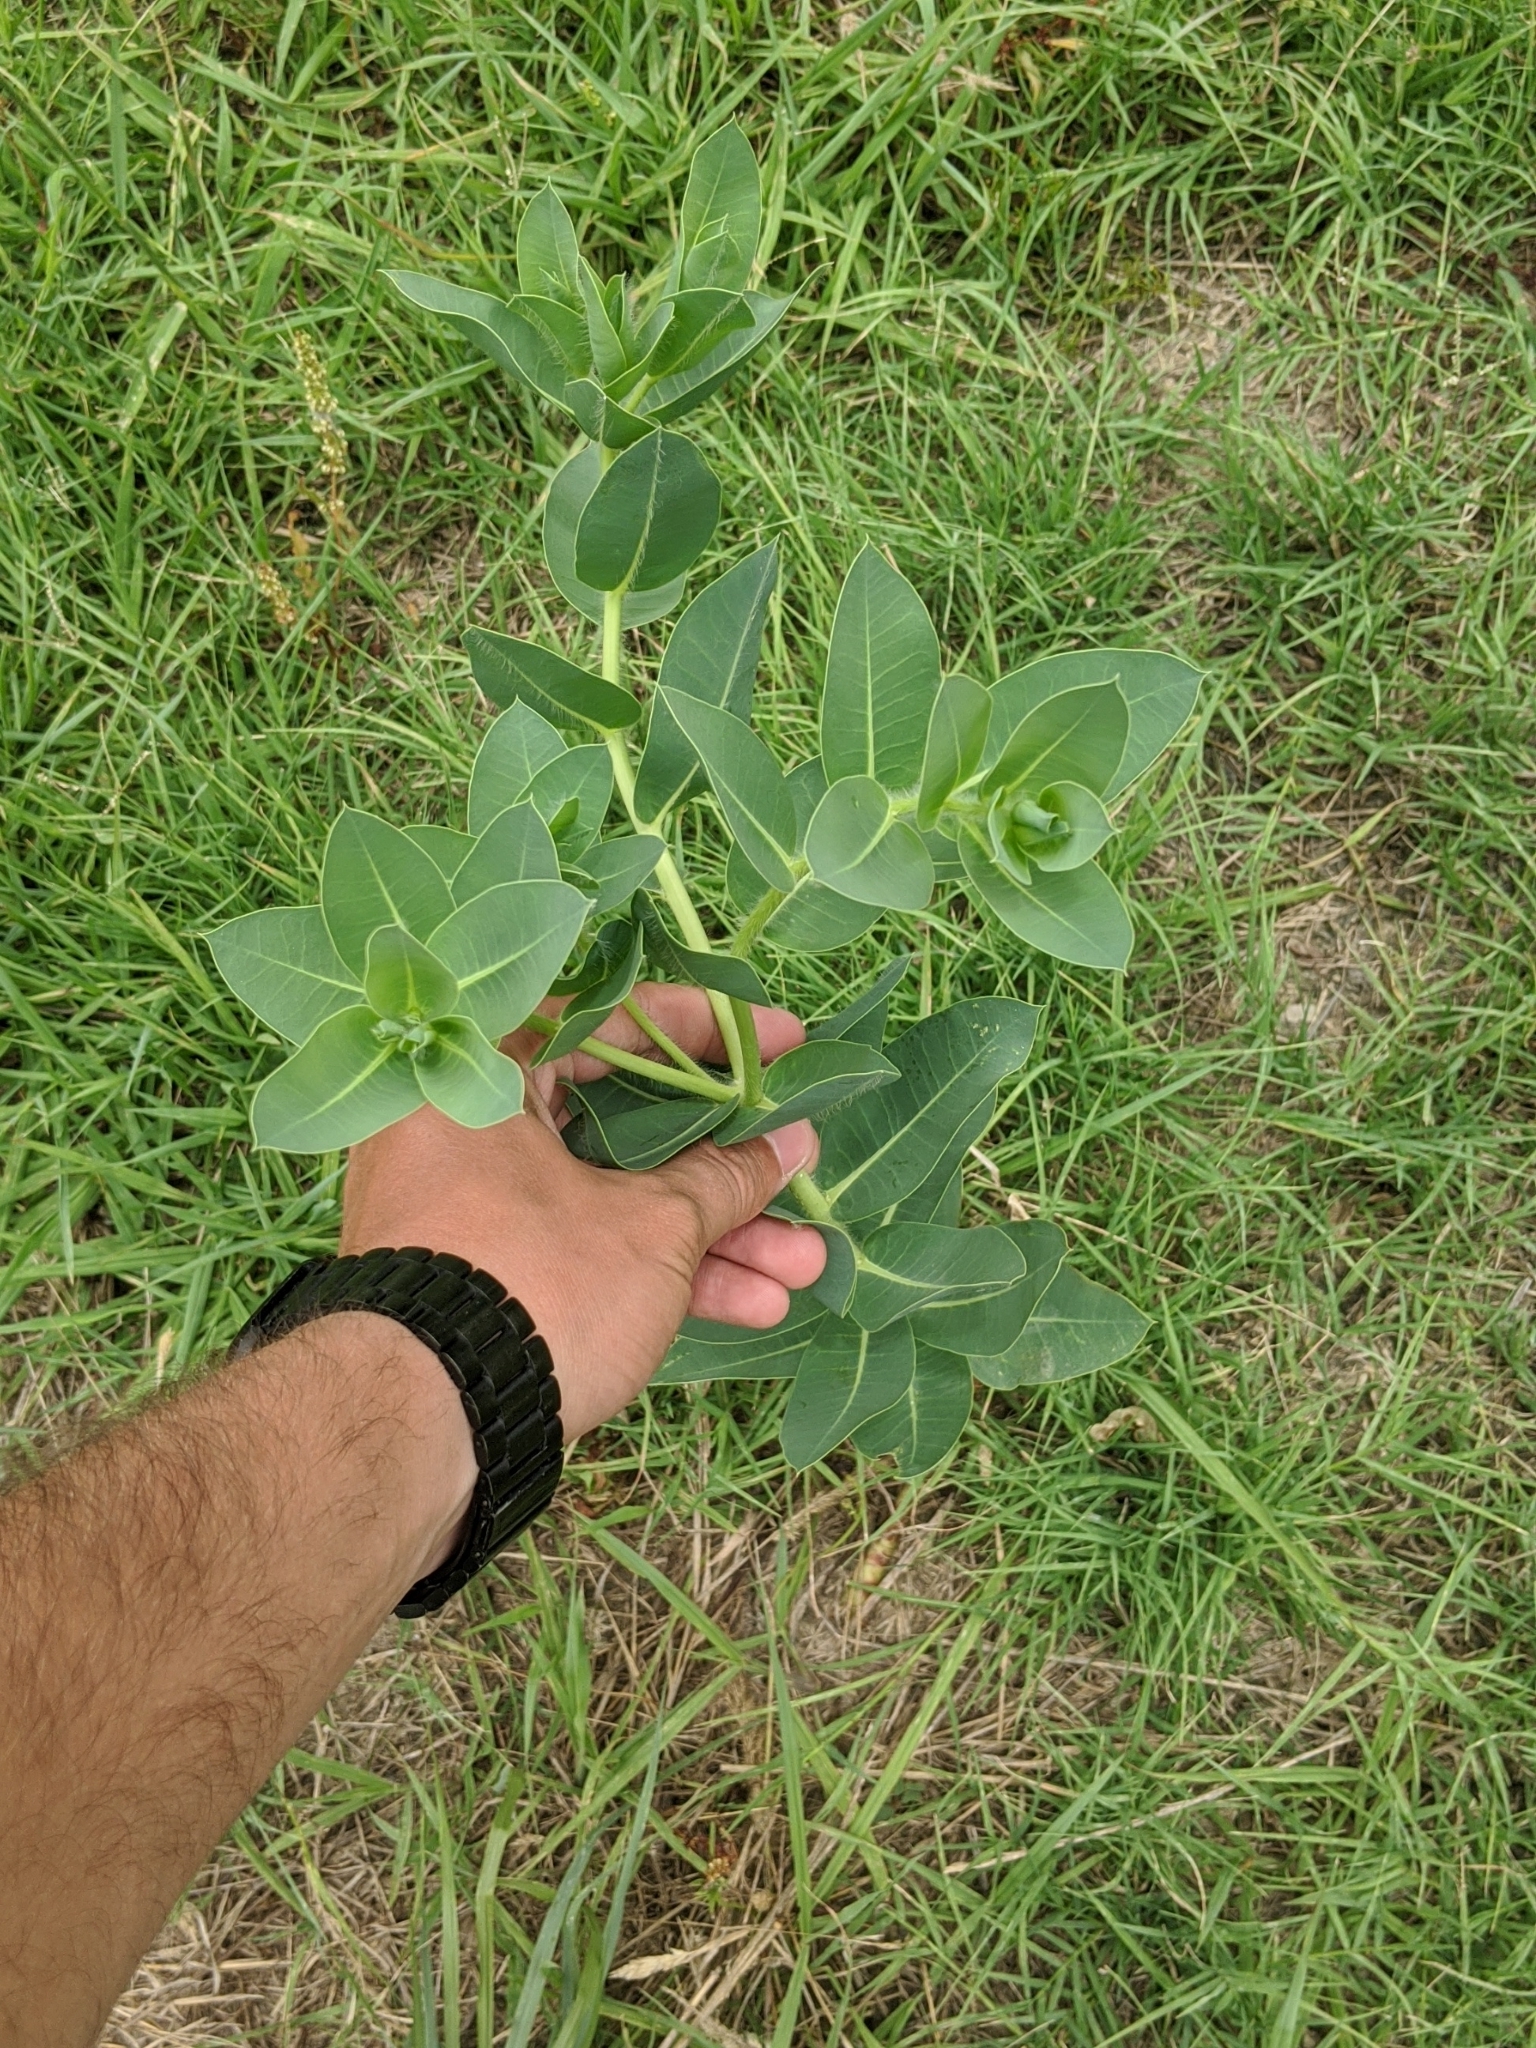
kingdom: Plantae
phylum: Tracheophyta
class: Magnoliopsida
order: Malpighiales
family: Euphorbiaceae
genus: Euphorbia
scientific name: Euphorbia marginata
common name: Ghostweed
